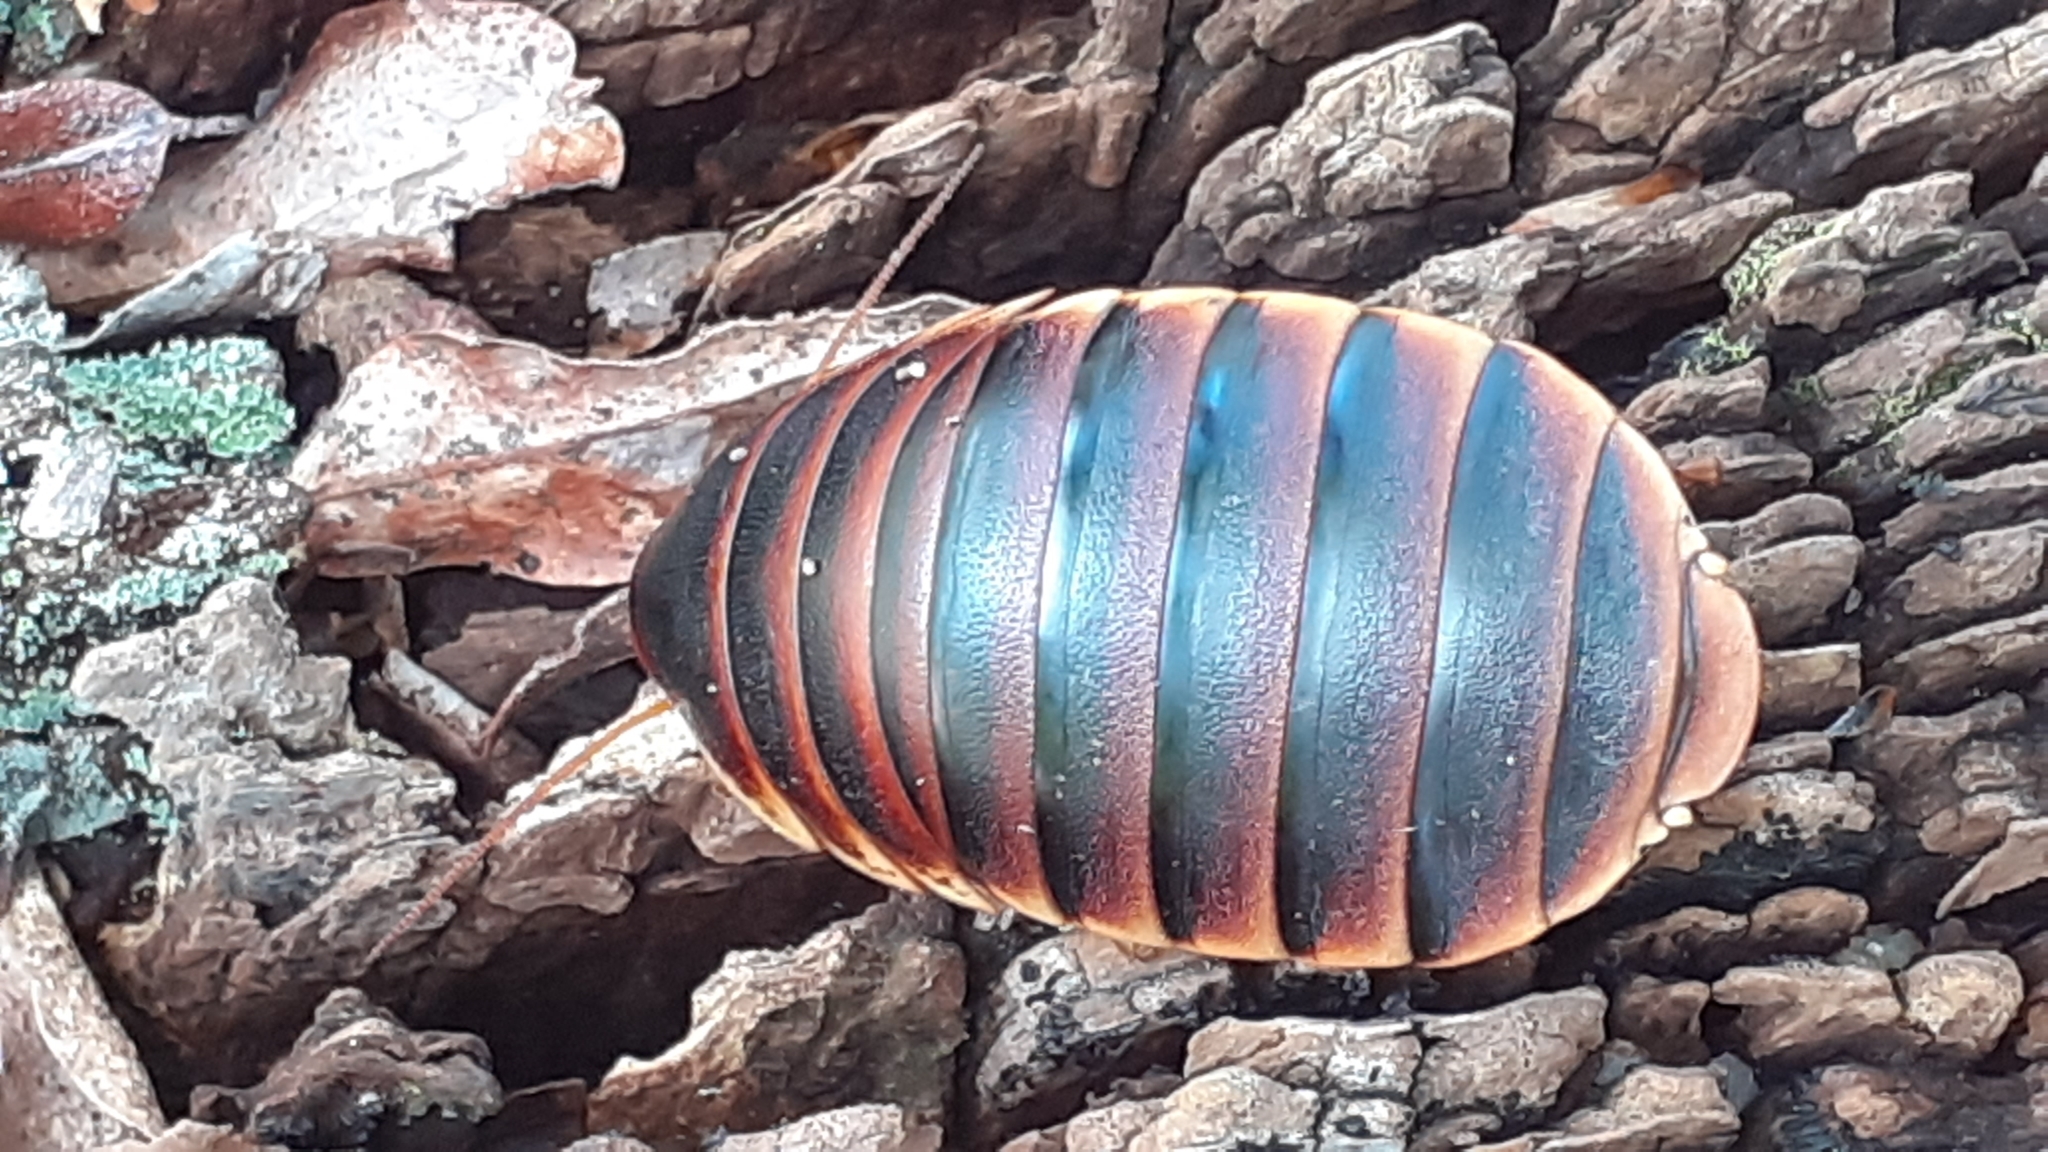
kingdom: Animalia
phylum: Arthropoda
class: Insecta
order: Blattodea
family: Blaberidae
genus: Aptera
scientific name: Aptera fusca
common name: Cape mountain cockroach
